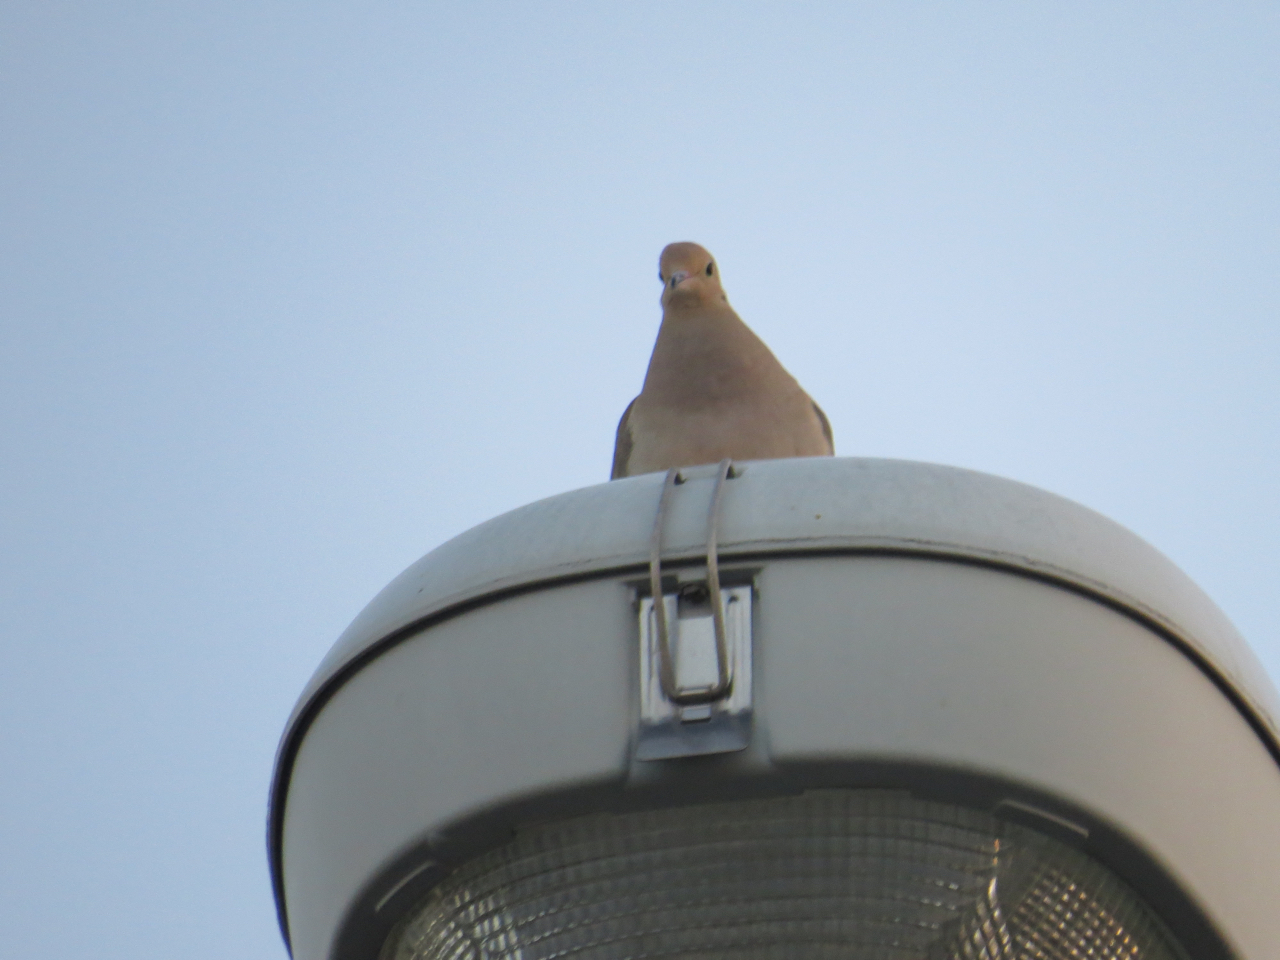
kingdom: Animalia
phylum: Chordata
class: Aves
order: Columbiformes
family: Columbidae
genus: Zenaida
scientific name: Zenaida macroura
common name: Mourning dove
